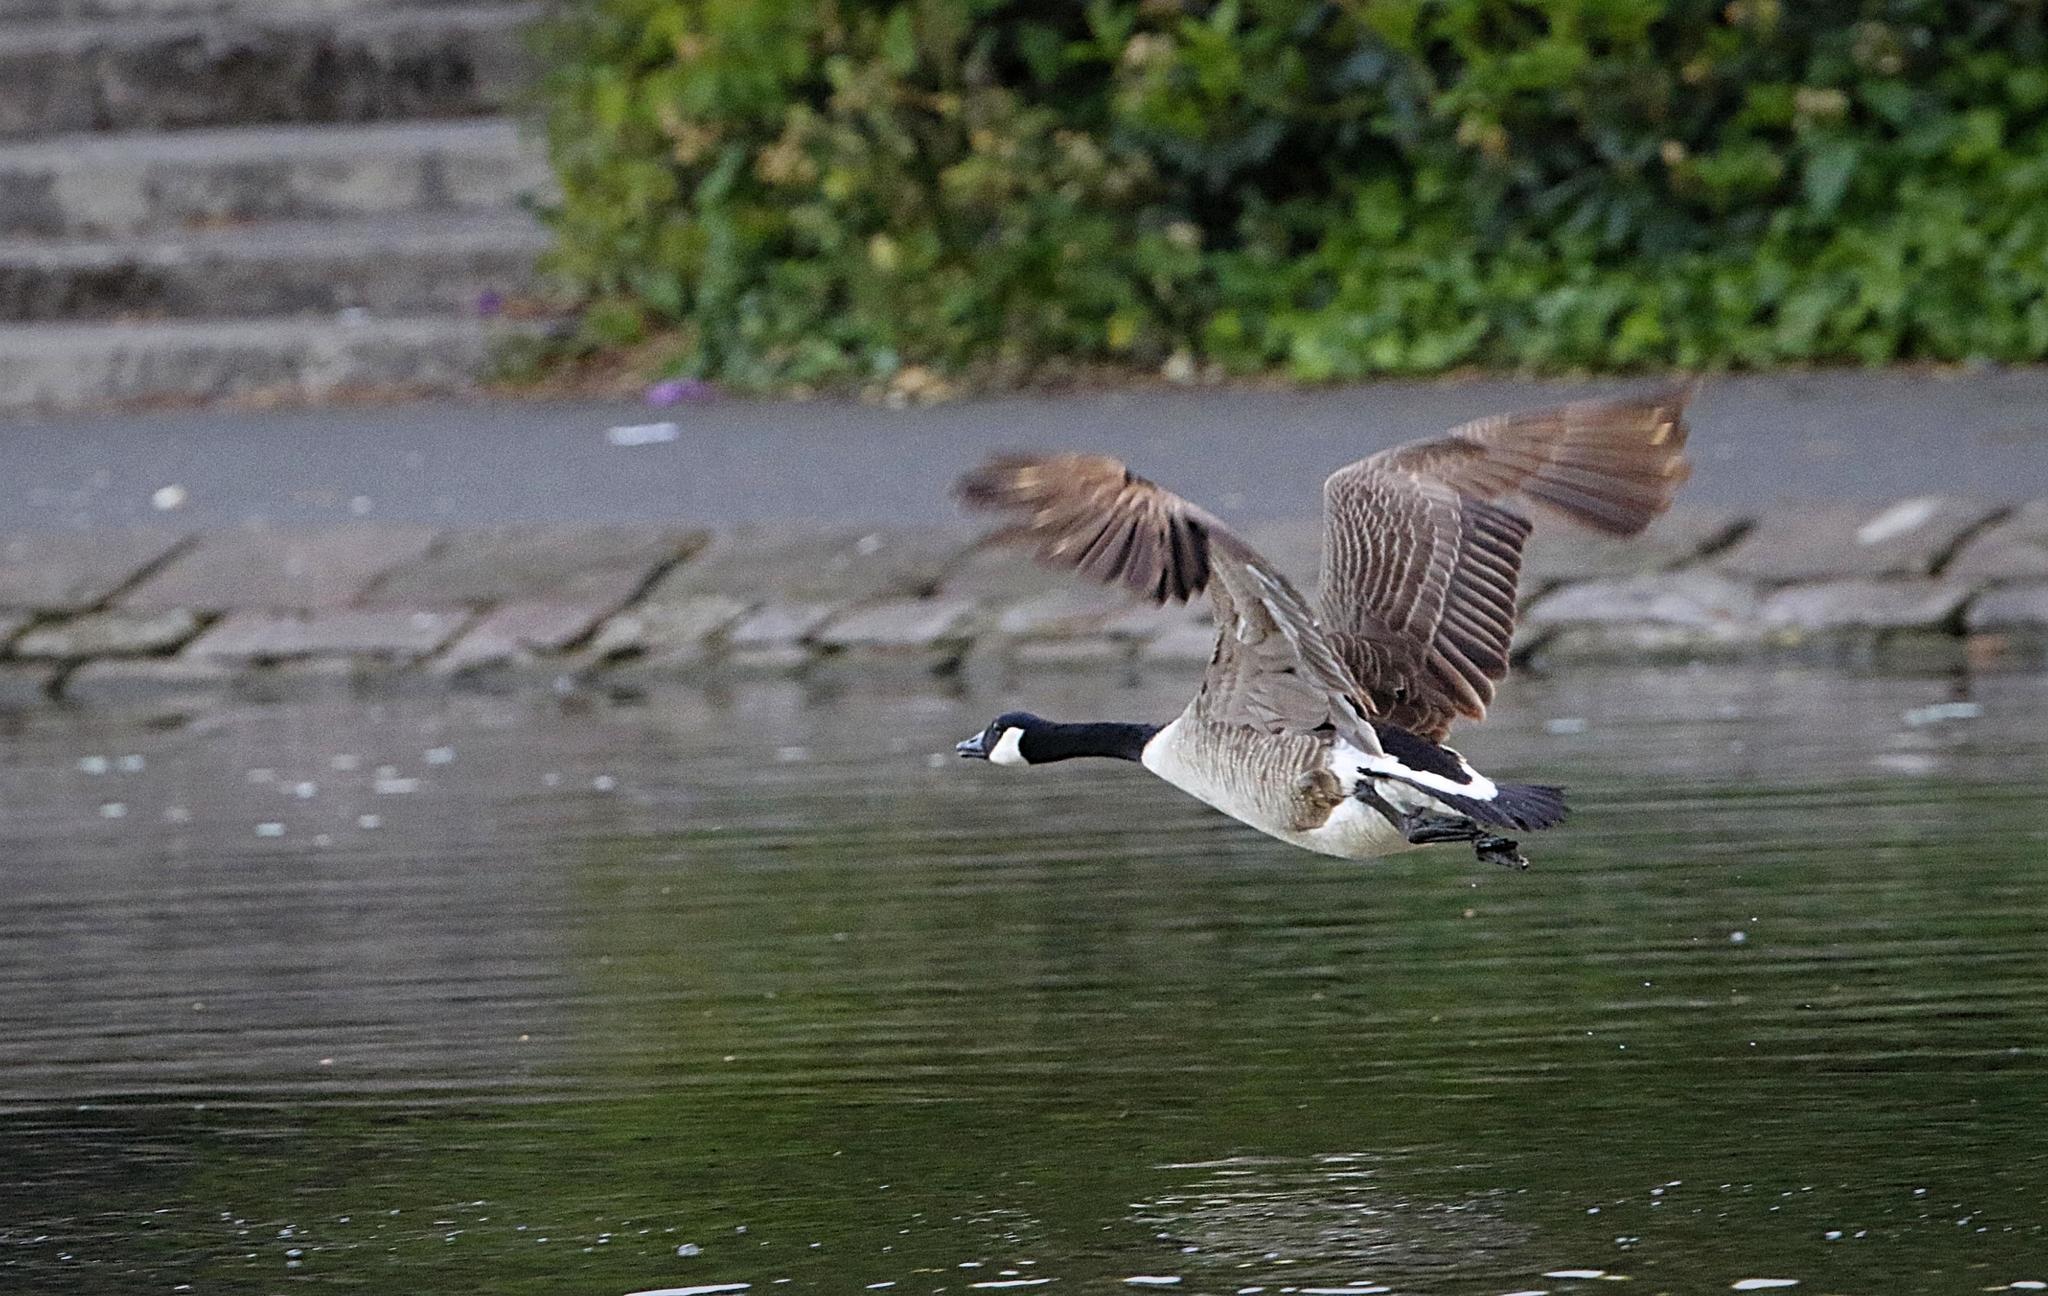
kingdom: Animalia
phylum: Chordata
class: Aves
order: Anseriformes
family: Anatidae
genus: Branta
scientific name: Branta canadensis
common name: Canada goose
